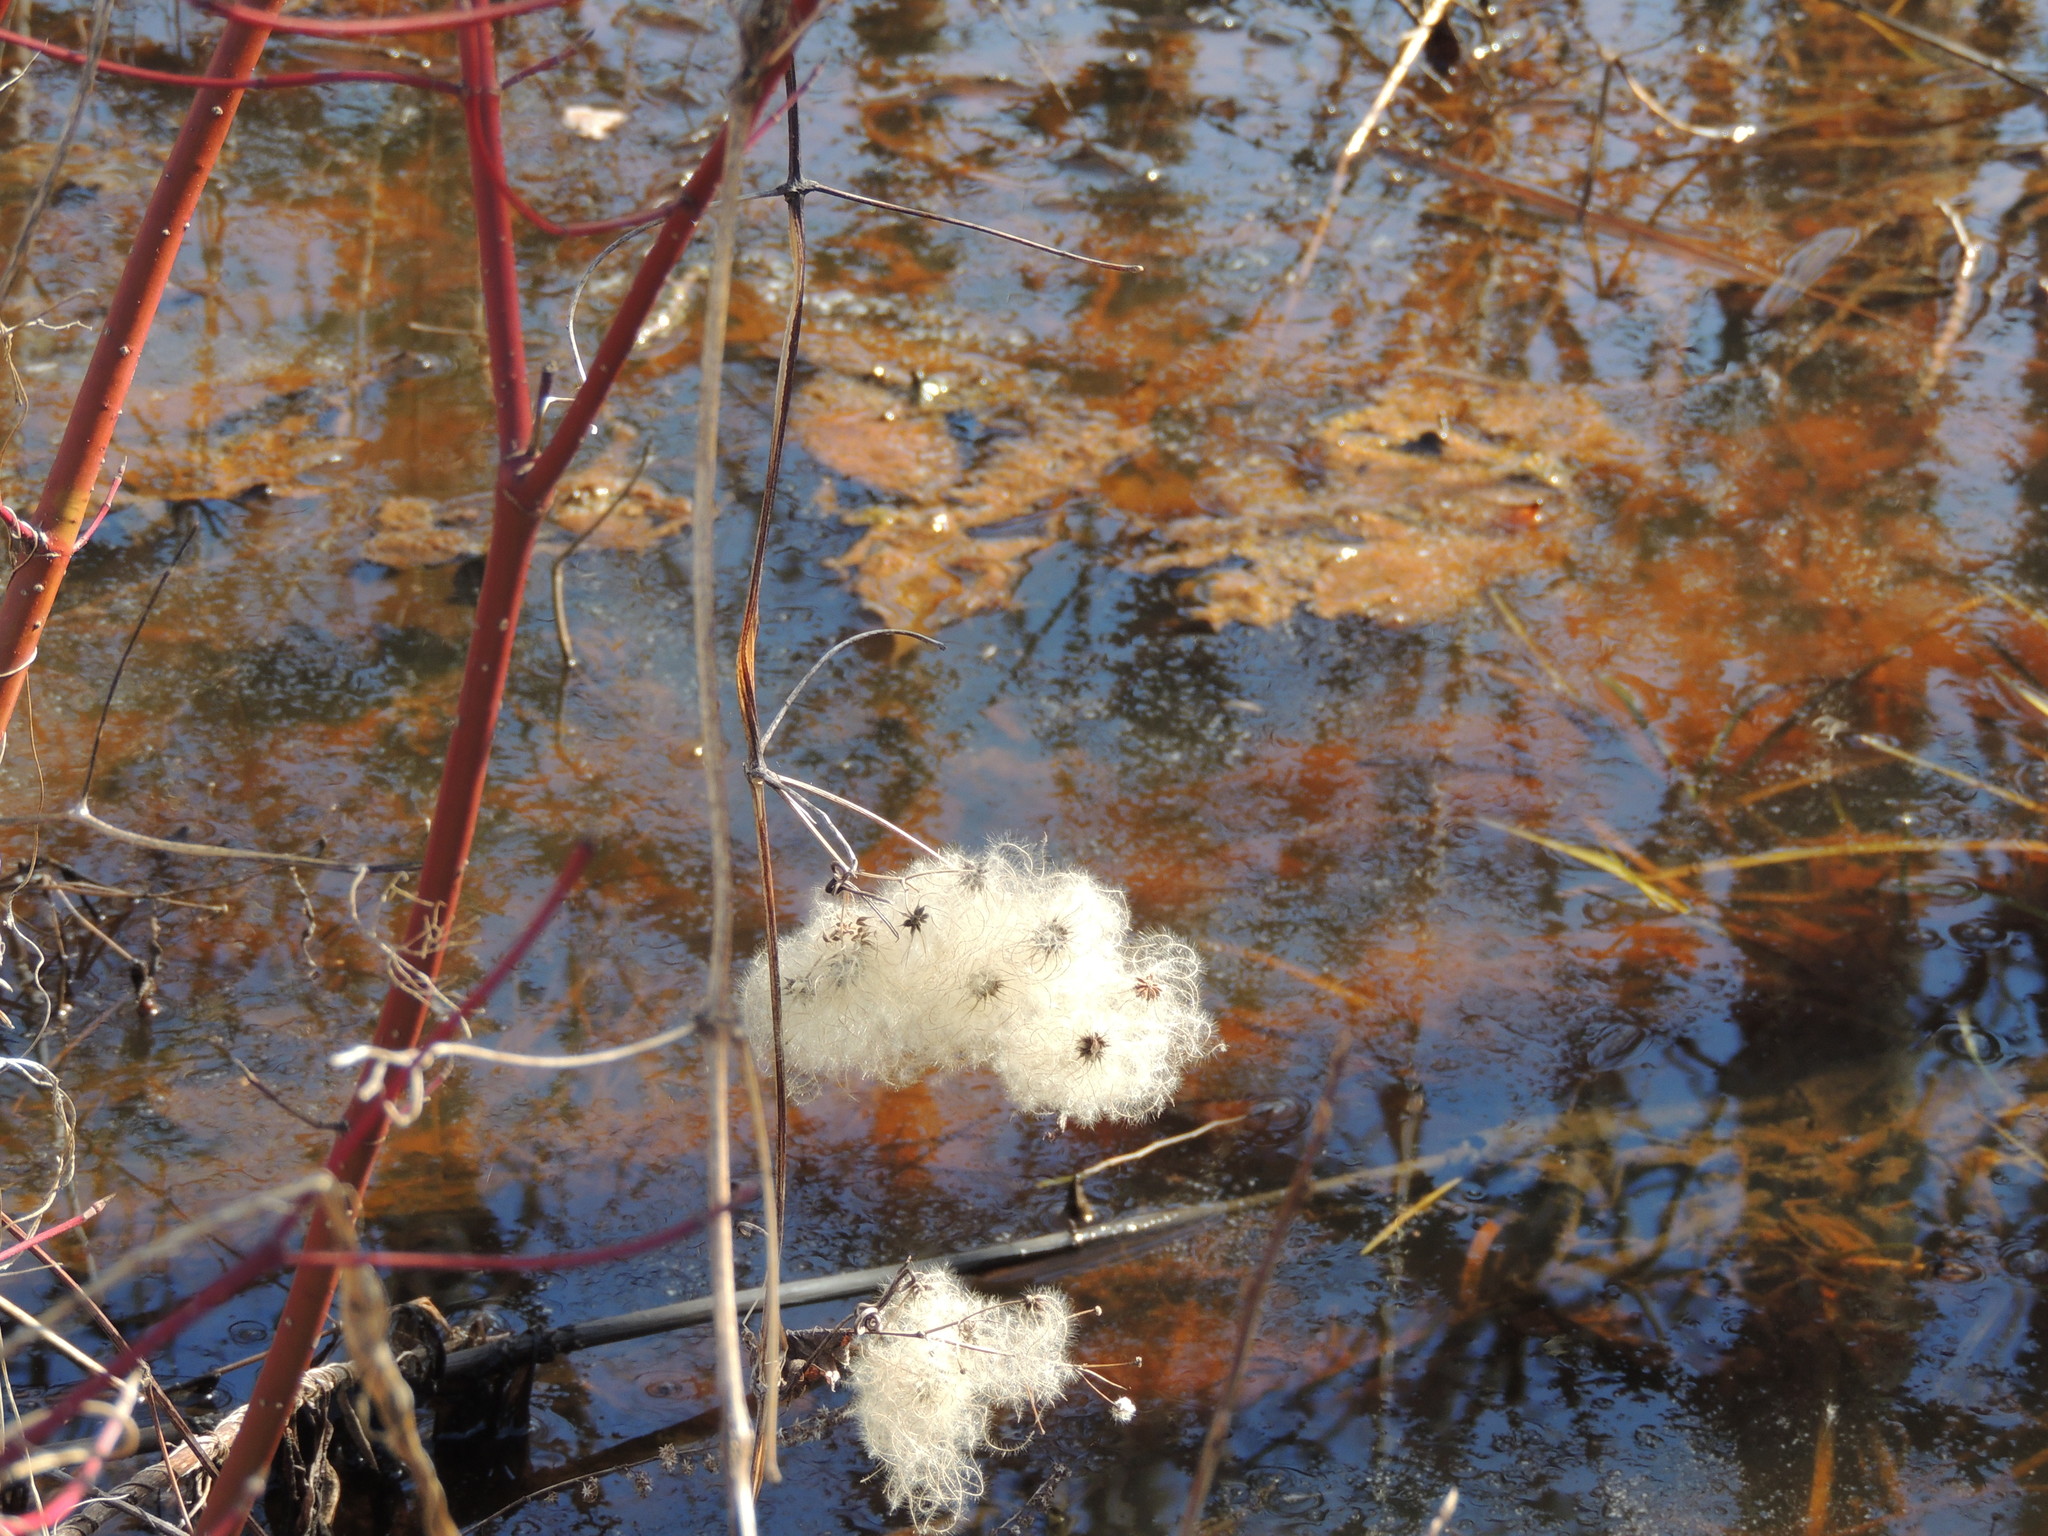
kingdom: Plantae
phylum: Tracheophyta
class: Magnoliopsida
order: Ranunculales
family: Ranunculaceae
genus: Clematis
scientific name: Clematis virginiana
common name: Virgin's-bower
